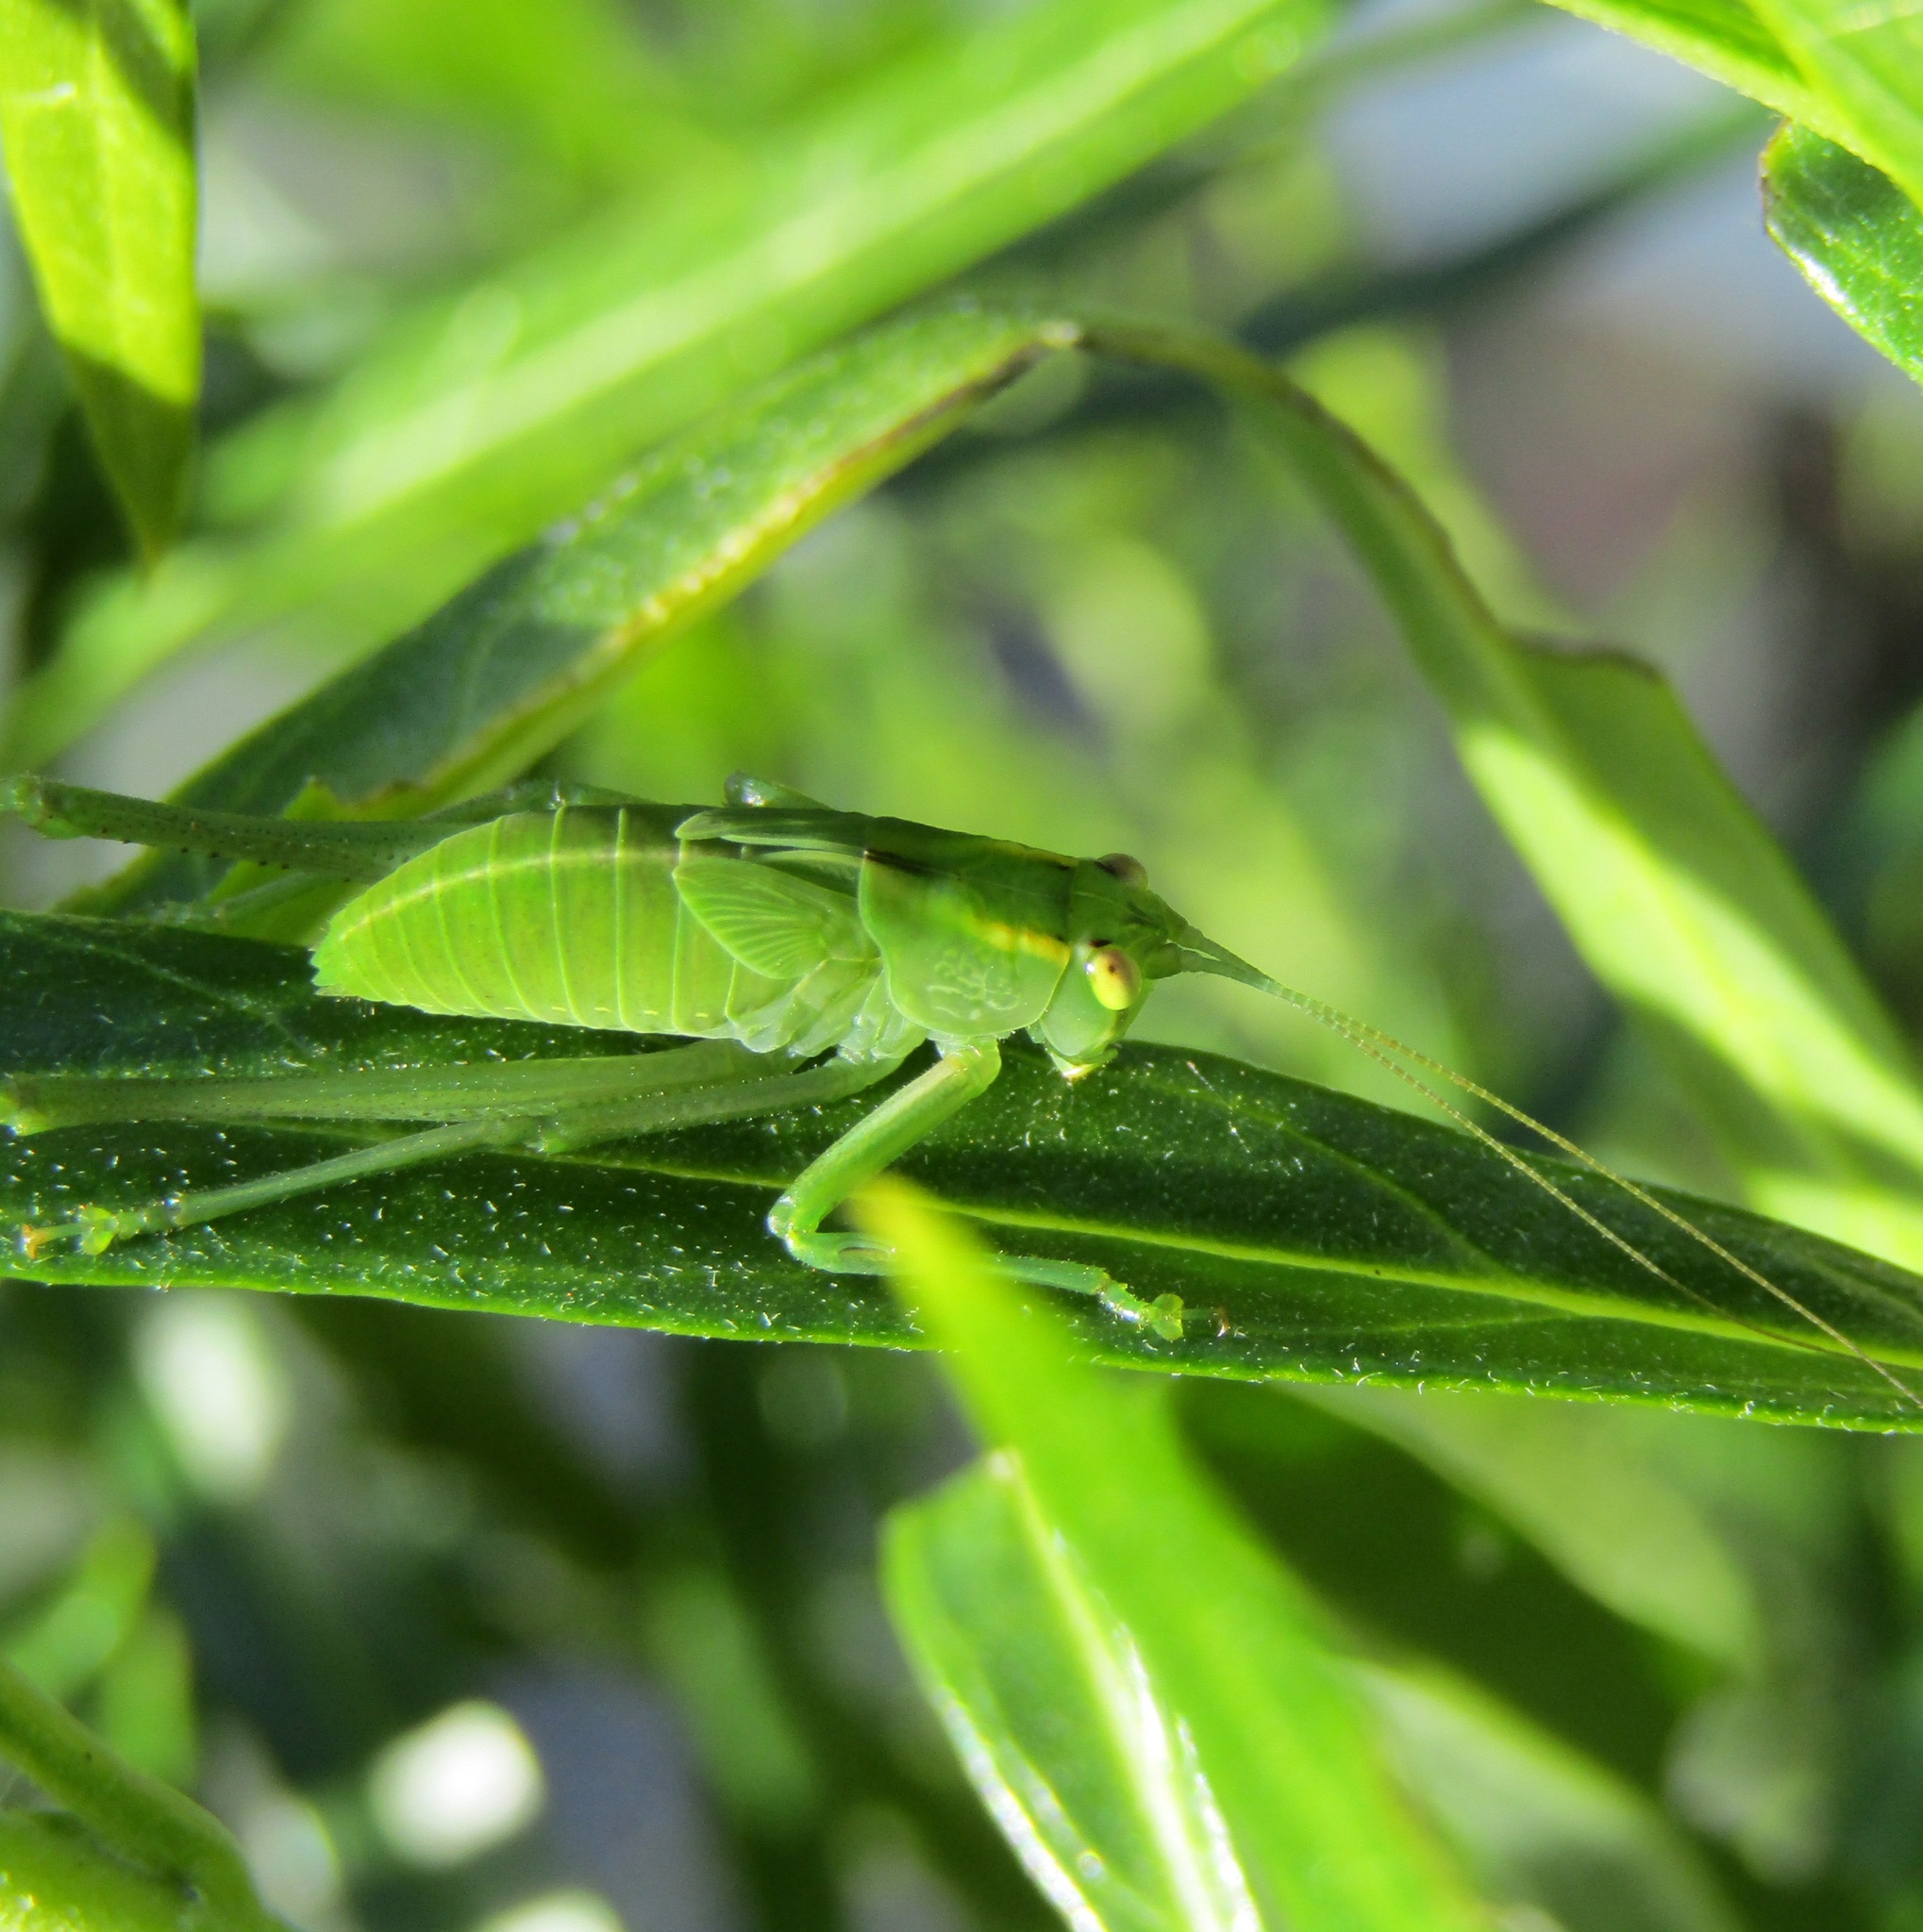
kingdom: Animalia
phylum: Arthropoda
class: Insecta
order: Orthoptera
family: Tettigoniidae
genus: Caedicia
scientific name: Caedicia simplex
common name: Common garden katydid
